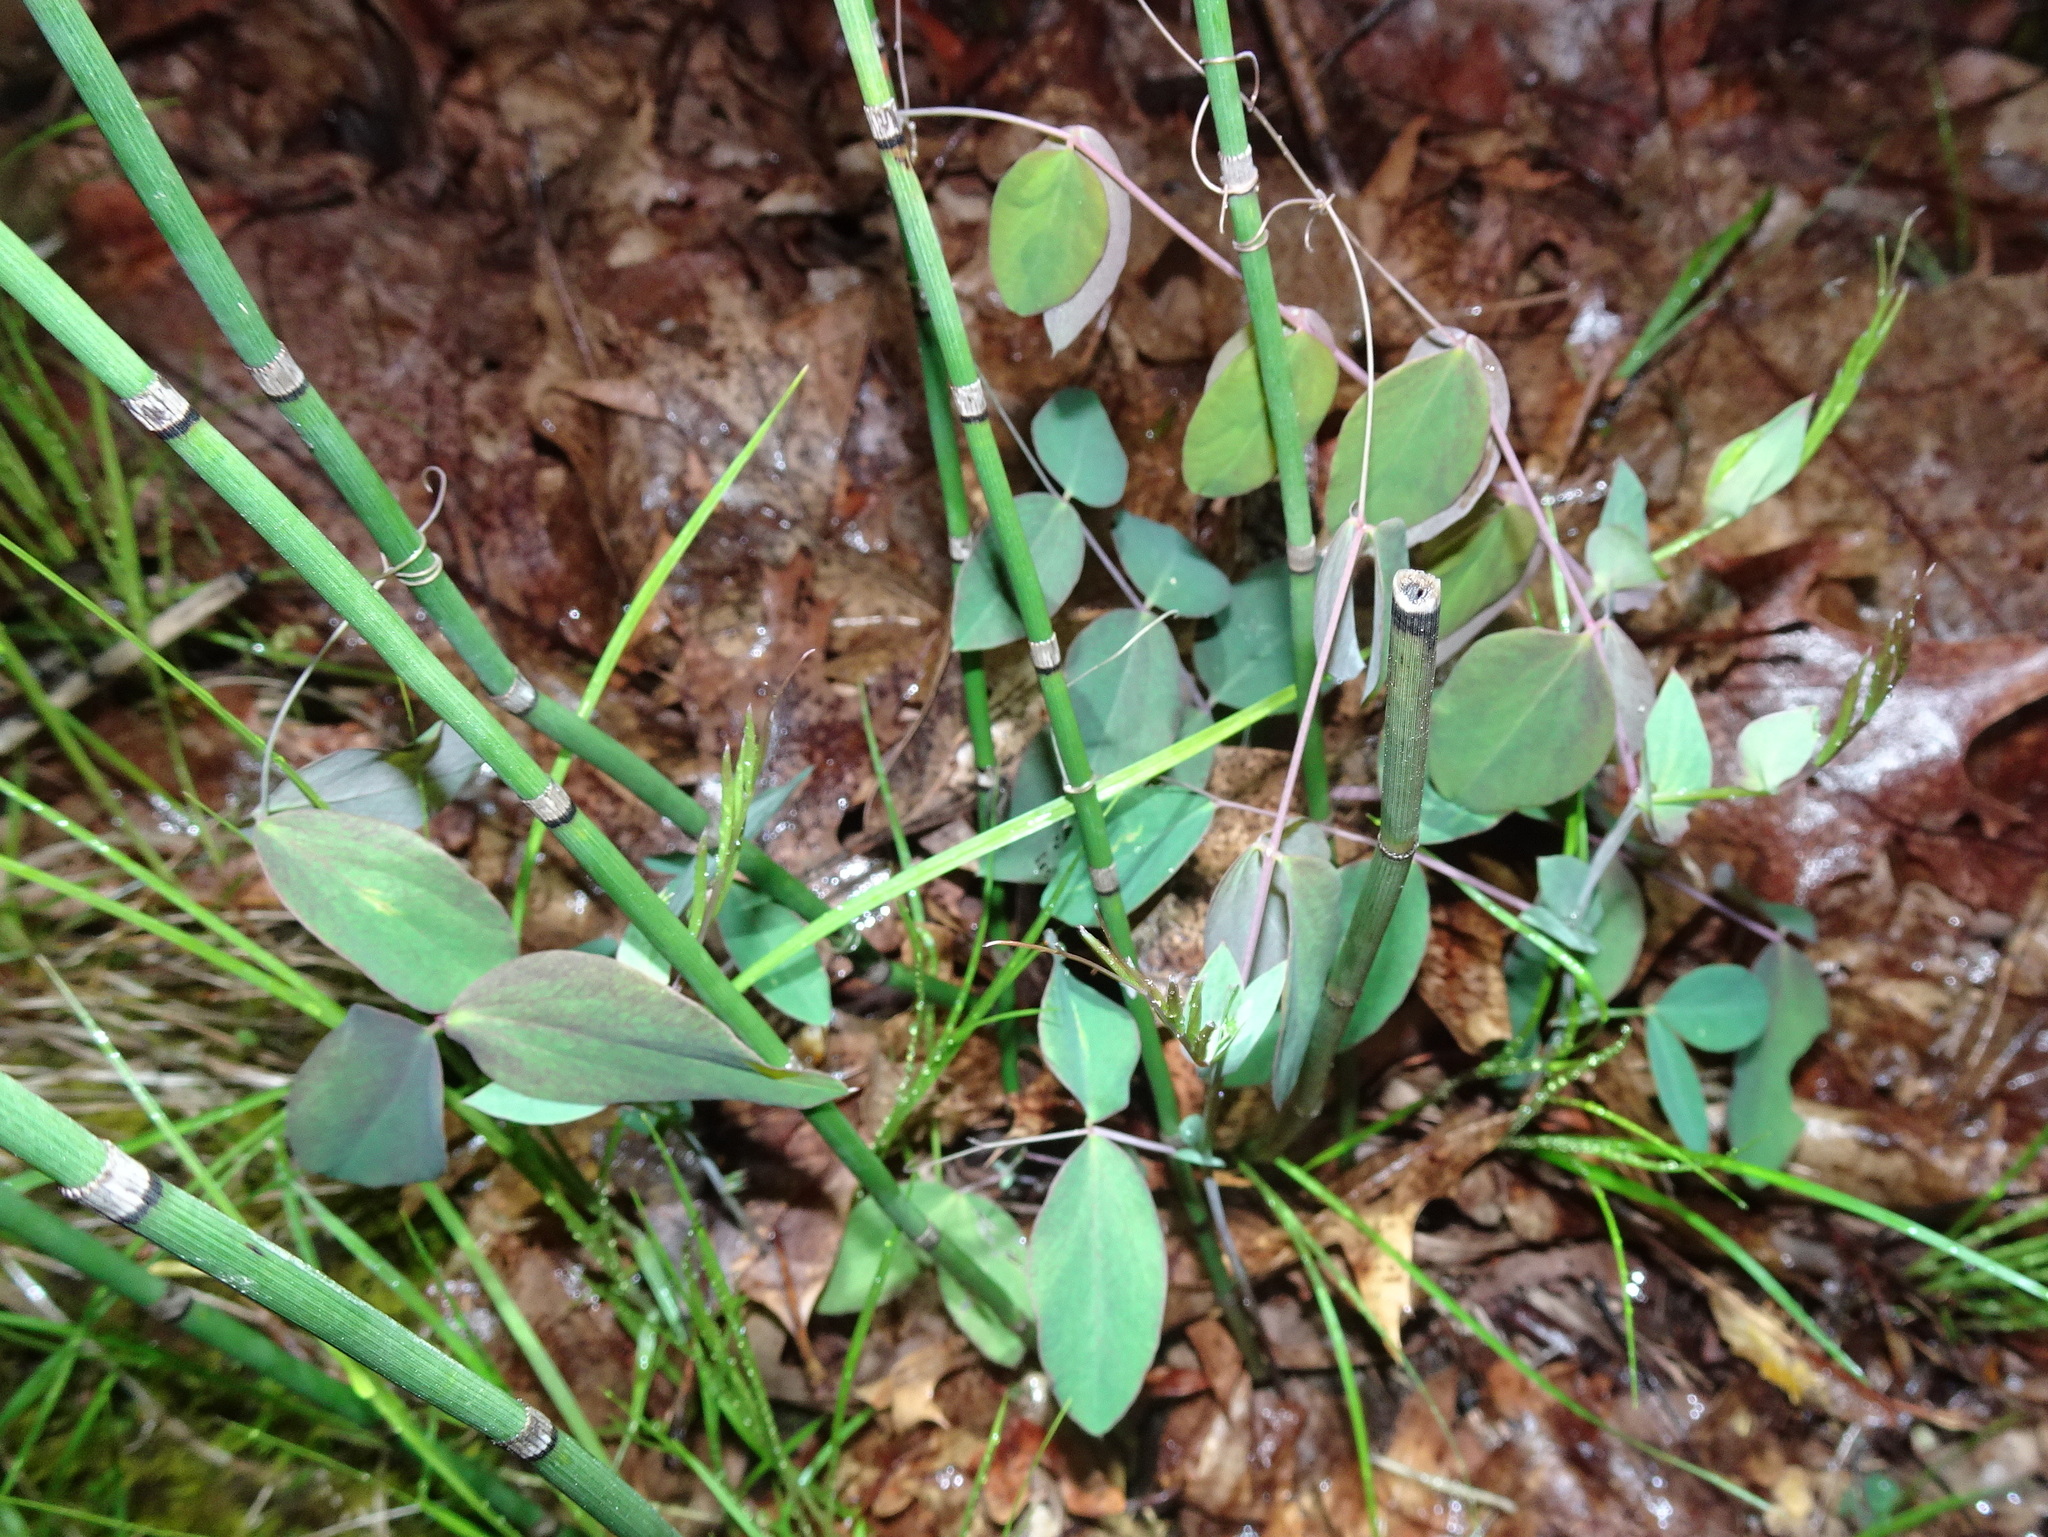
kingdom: Plantae
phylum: Tracheophyta
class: Magnoliopsida
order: Fabales
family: Fabaceae
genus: Lathyrus
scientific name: Lathyrus ochroleucus
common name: Pale vetchling
